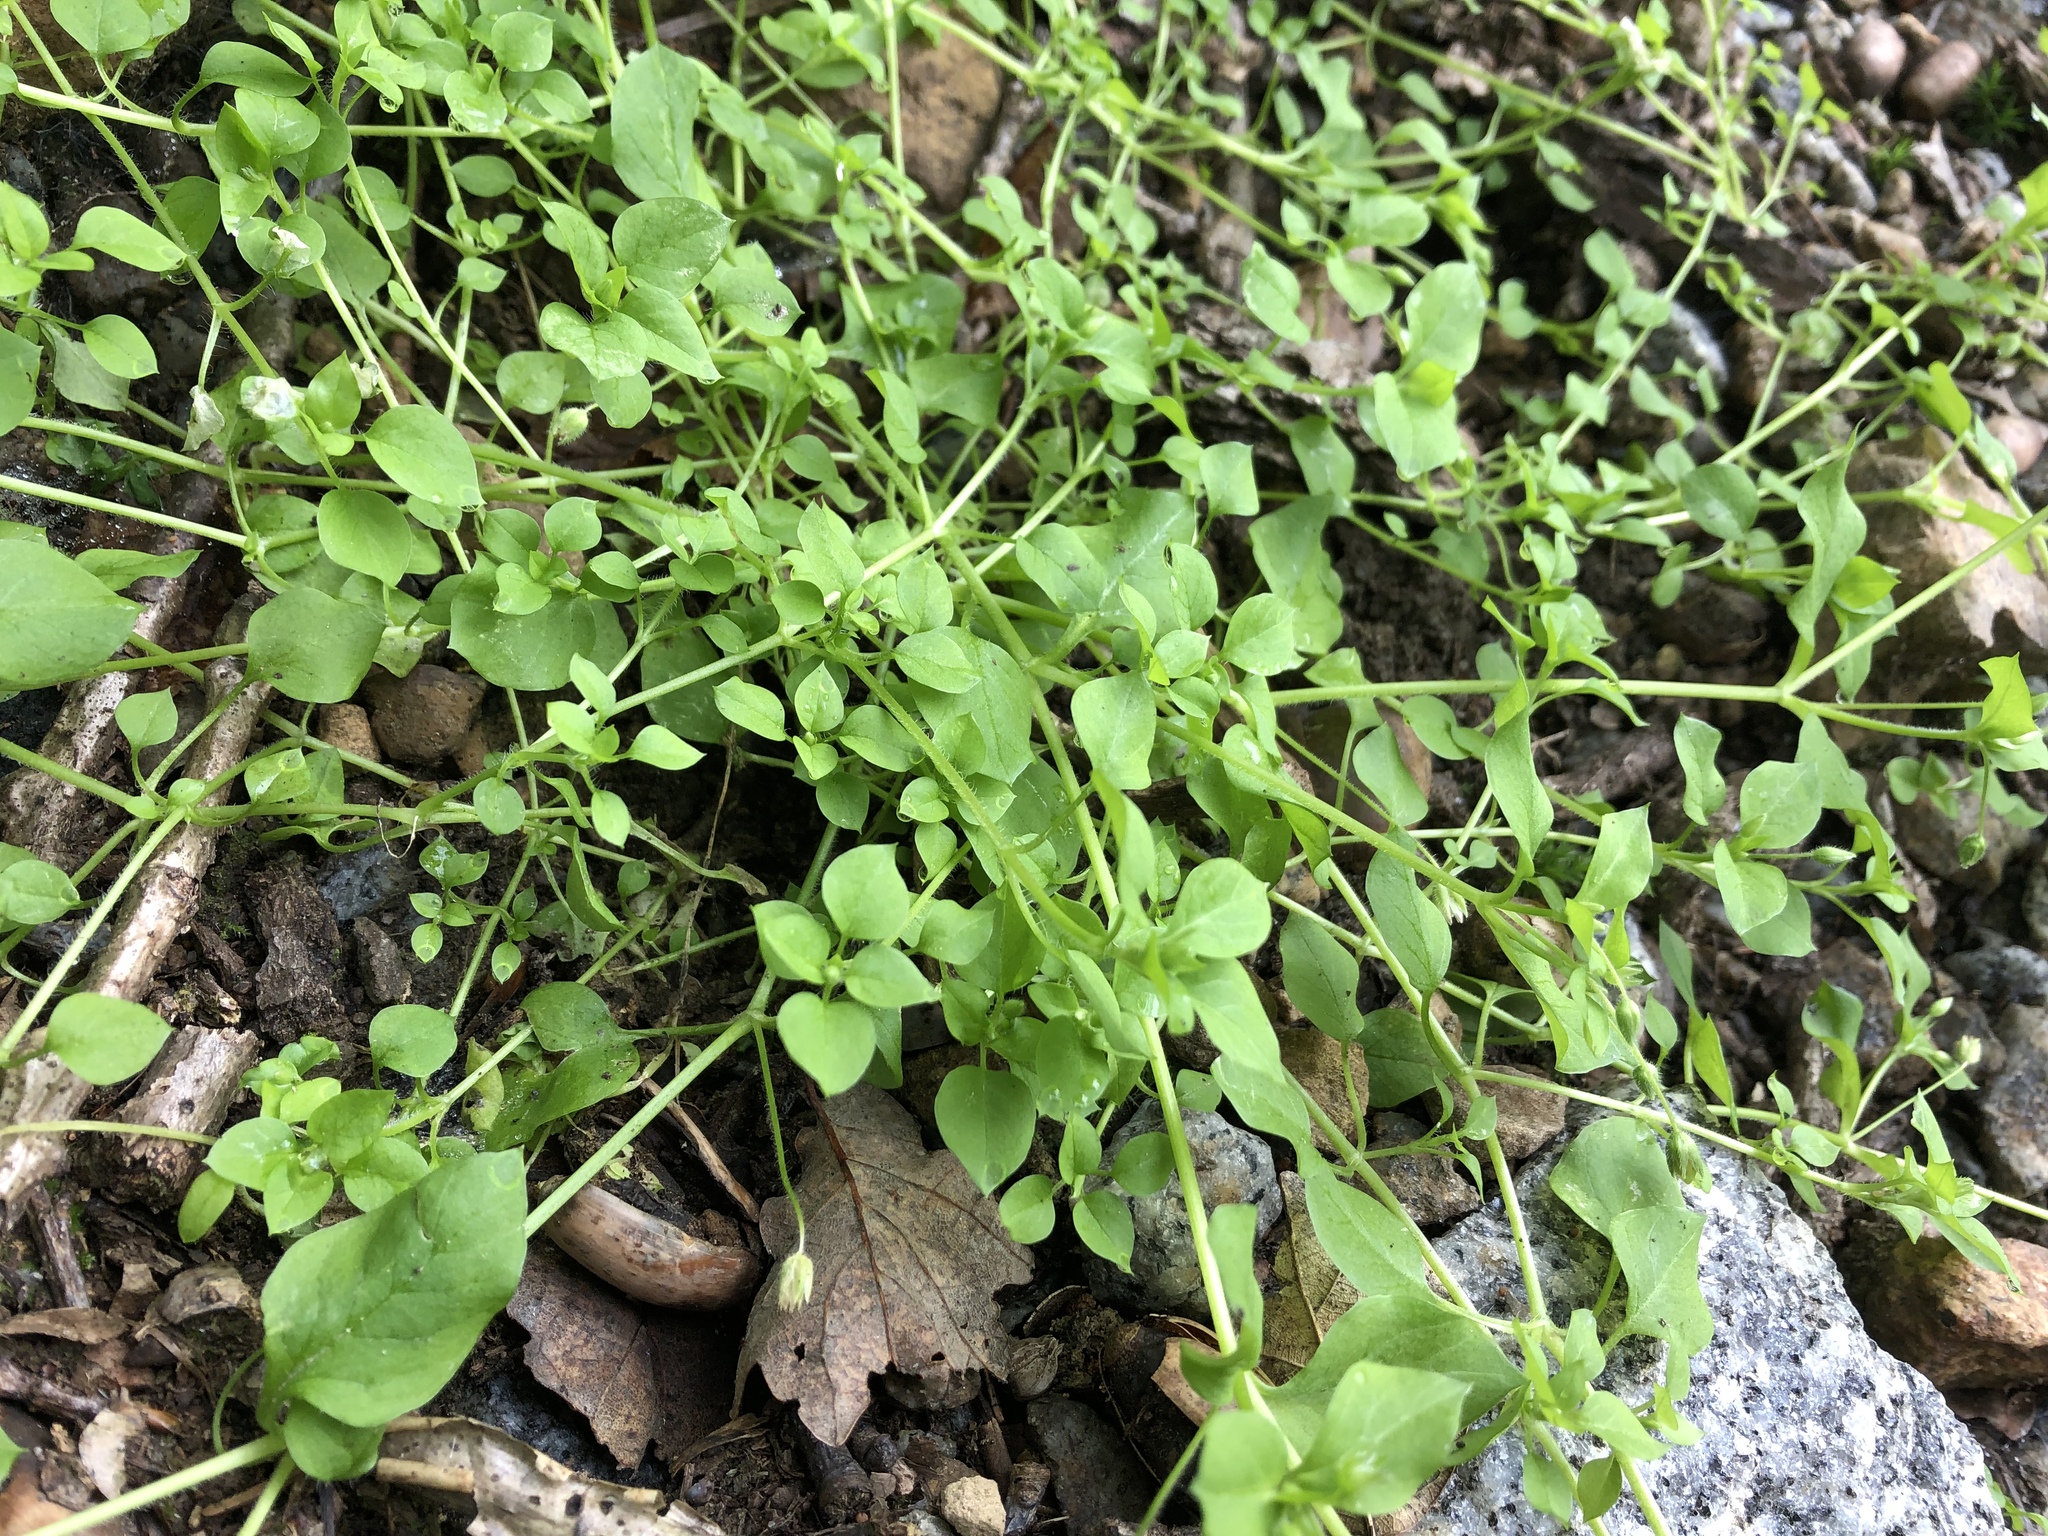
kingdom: Plantae
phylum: Tracheophyta
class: Magnoliopsida
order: Caryophyllales
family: Caryophyllaceae
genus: Stellaria
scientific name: Stellaria media
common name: Common chickweed
